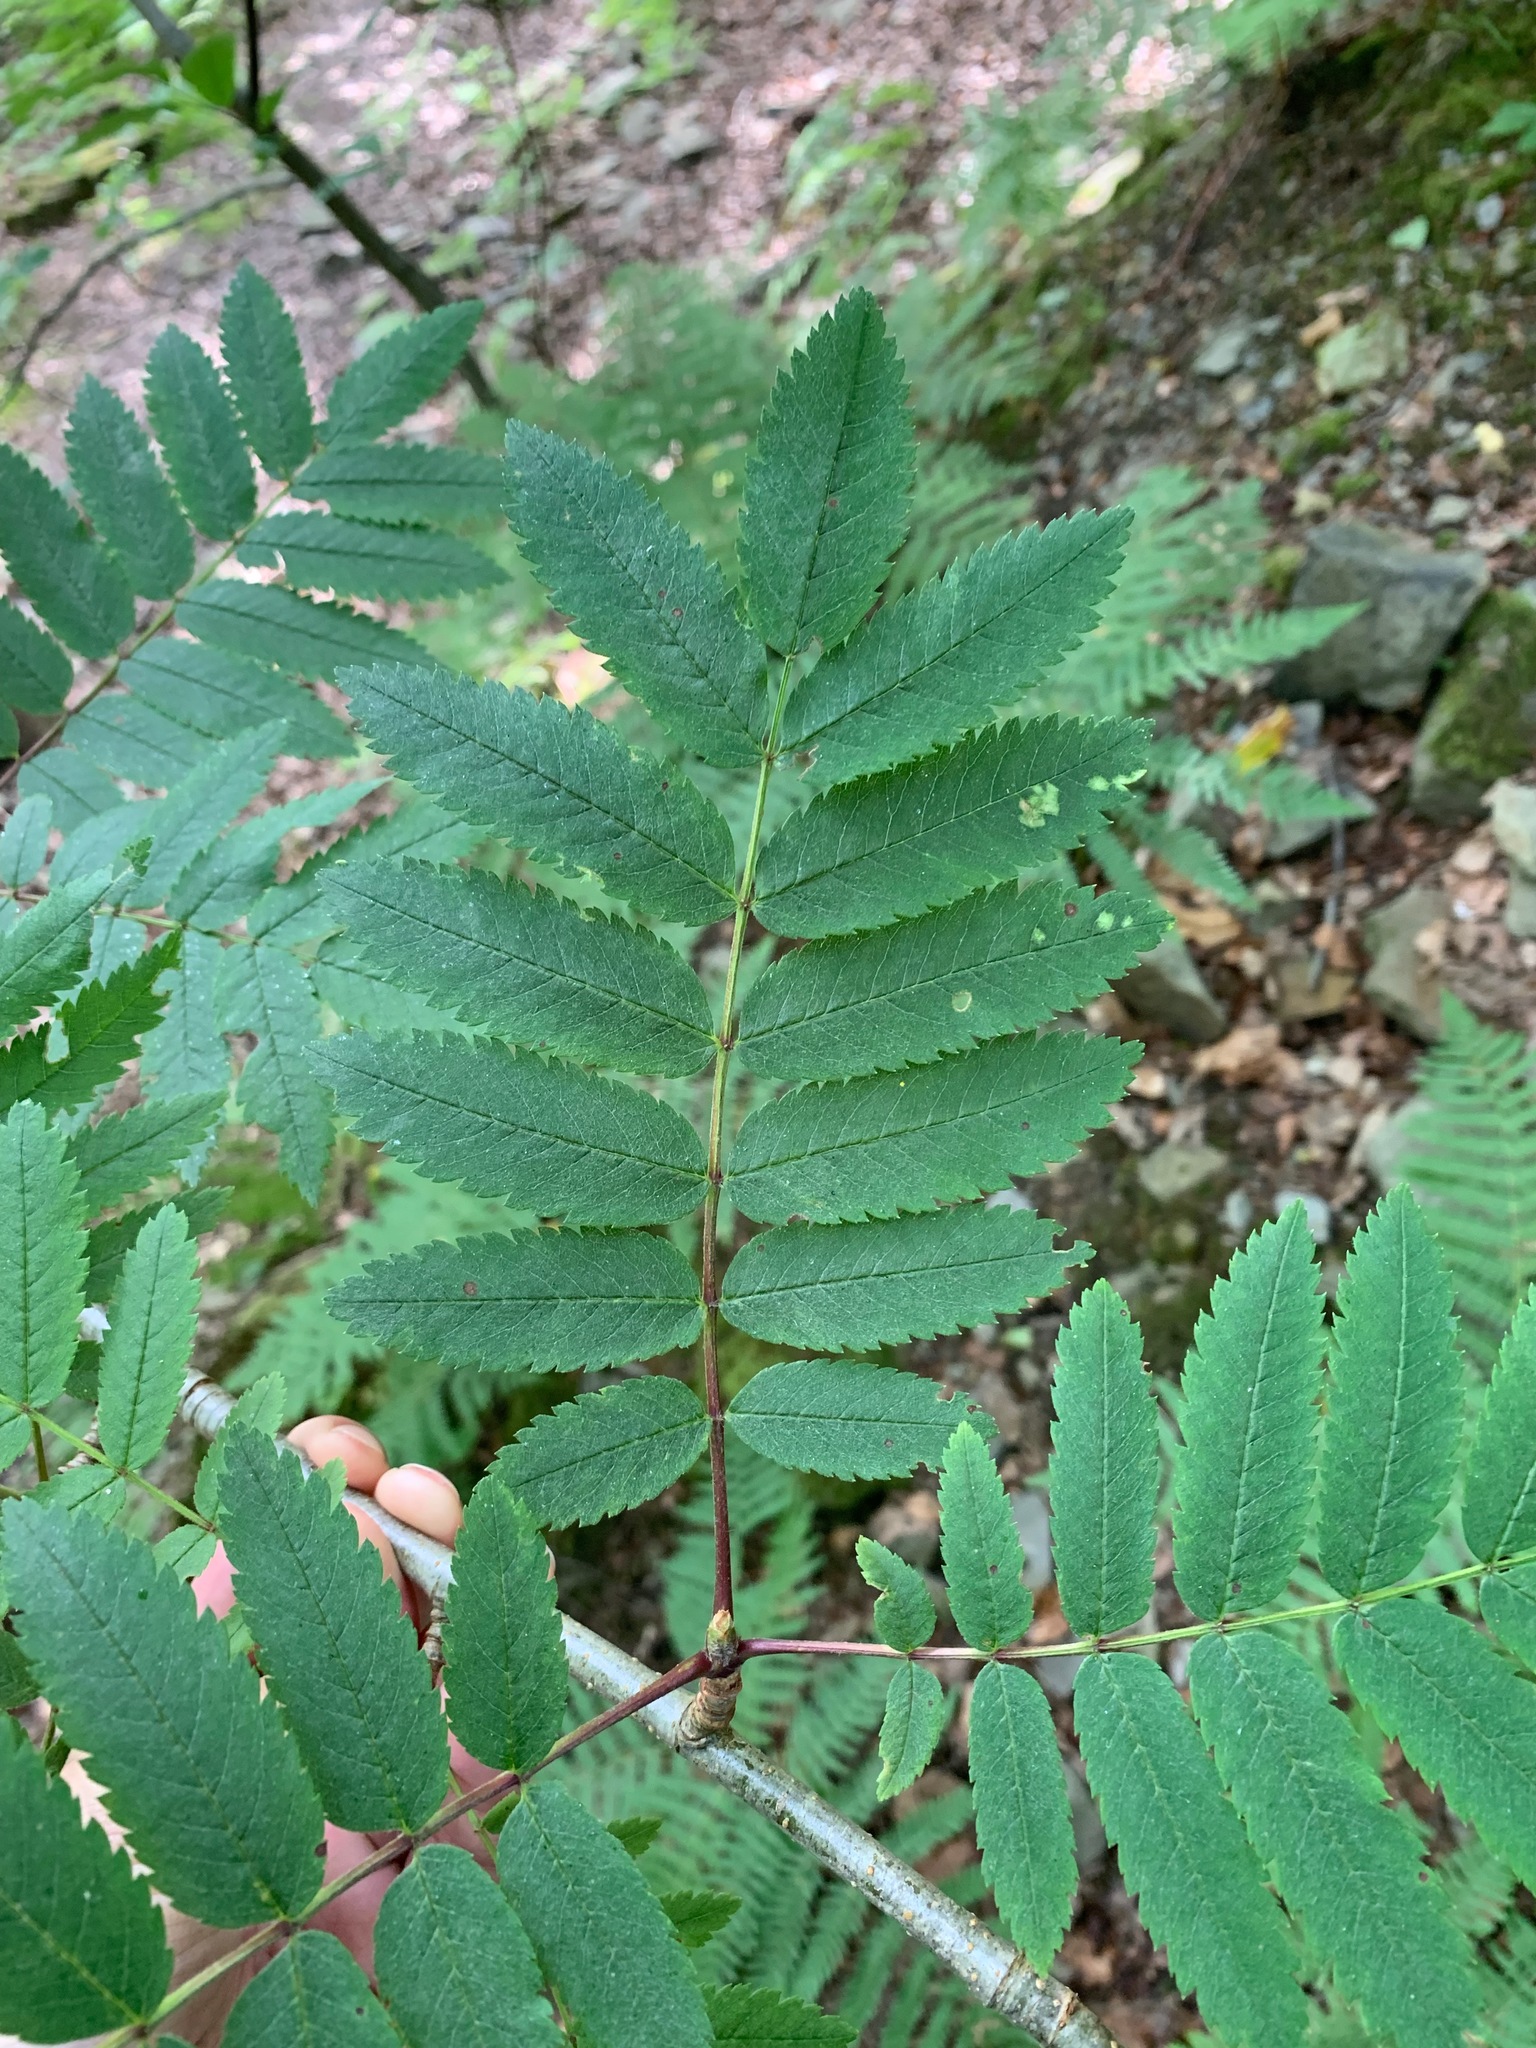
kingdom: Plantae
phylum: Tracheophyta
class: Magnoliopsida
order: Rosales
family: Rosaceae
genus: Sorbus
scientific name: Sorbus aucuparia
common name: Rowan
